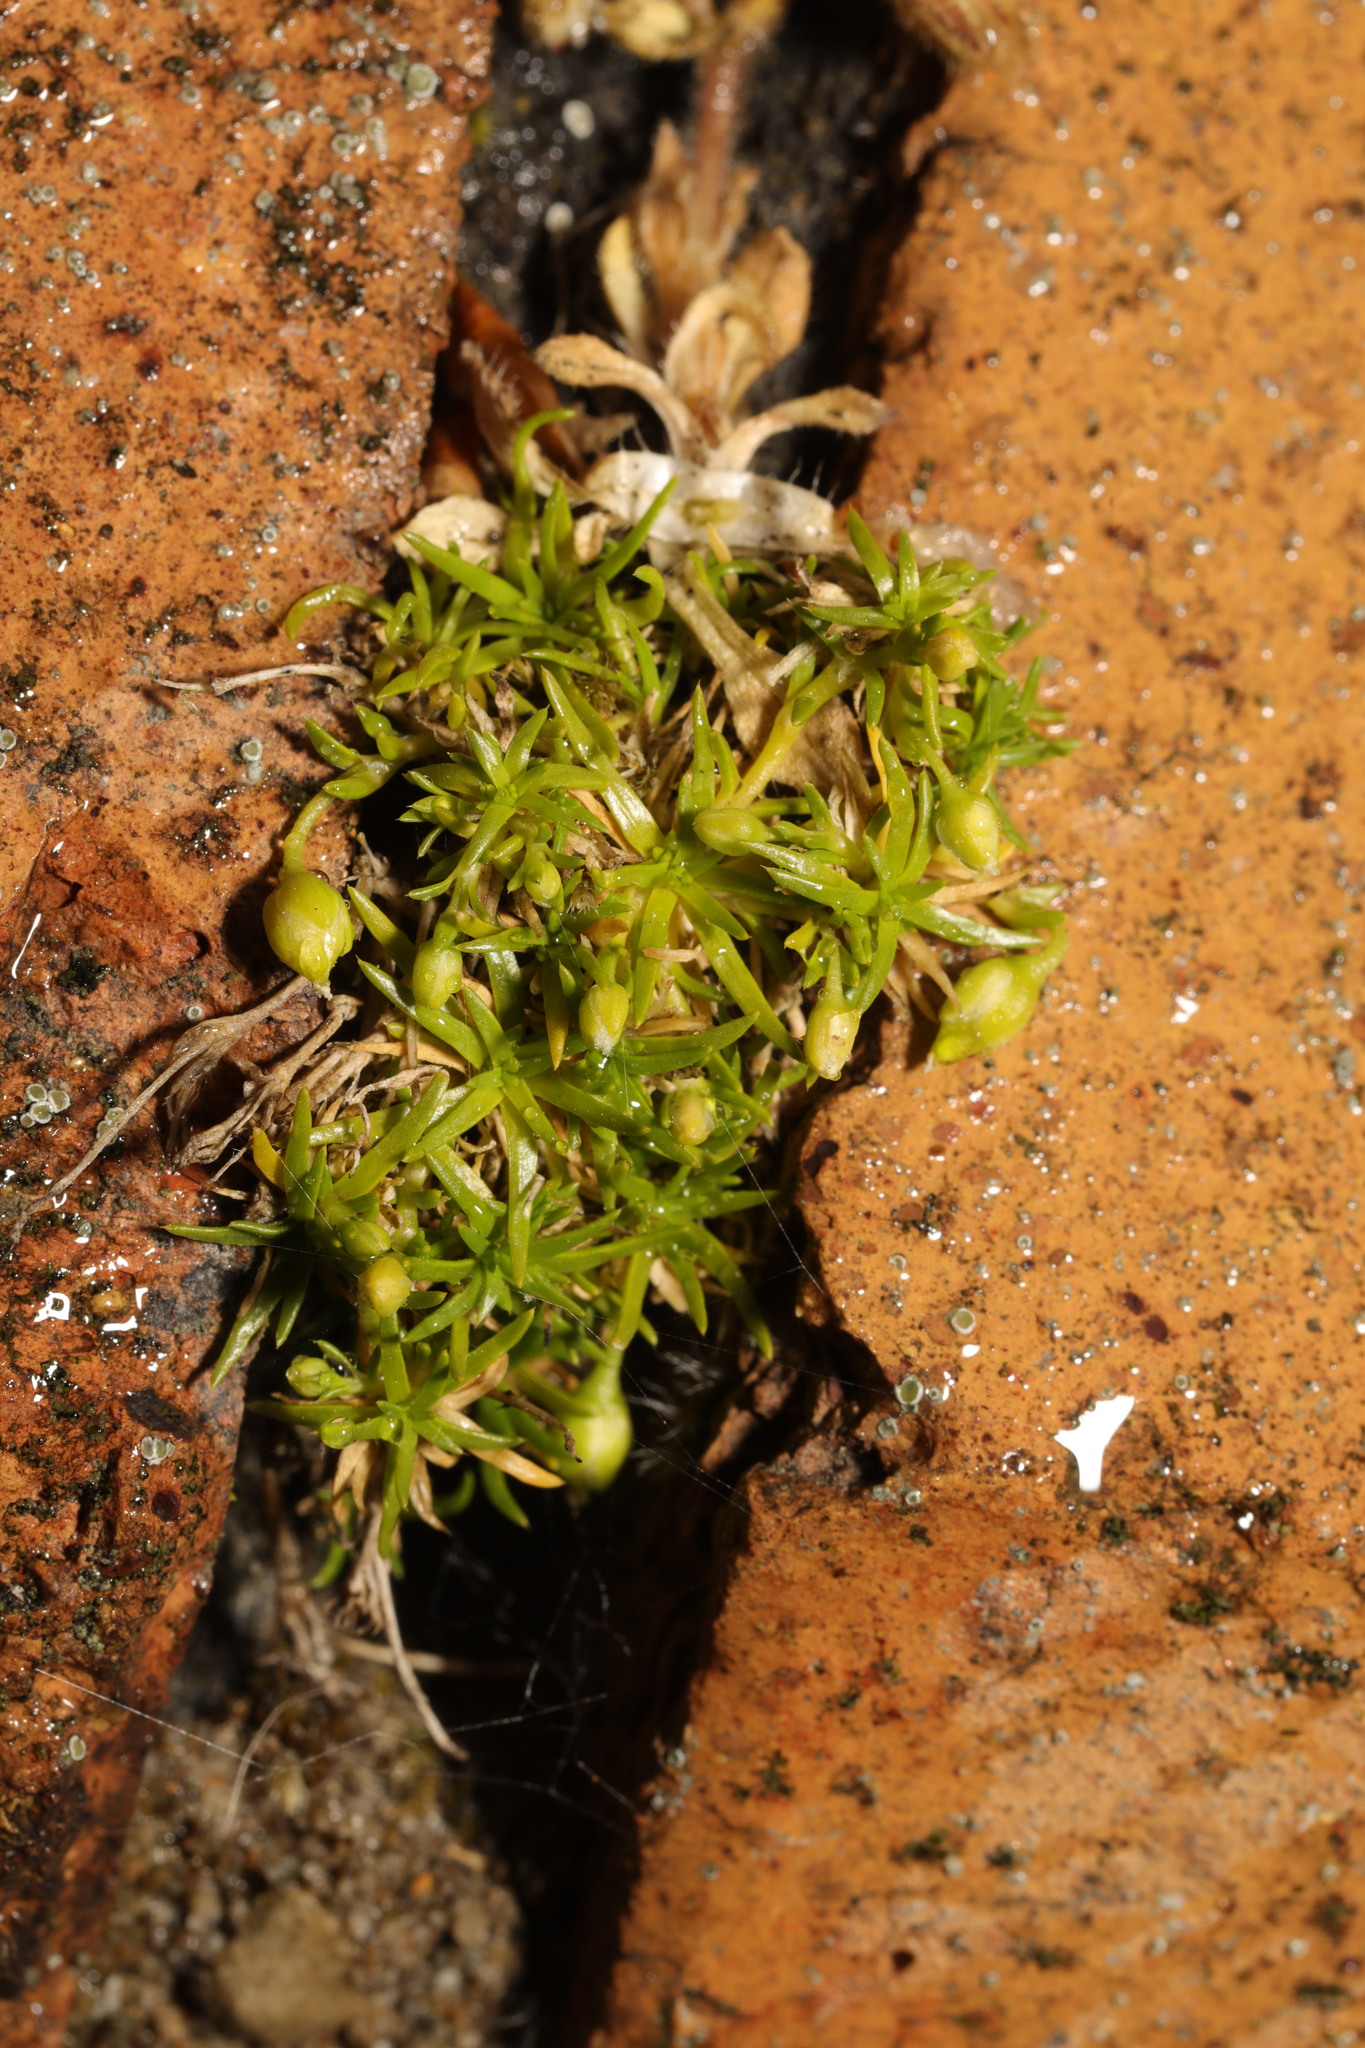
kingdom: Plantae
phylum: Tracheophyta
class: Magnoliopsida
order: Caryophyllales
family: Caryophyllaceae
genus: Sagina
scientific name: Sagina procumbens
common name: Procumbent pearlwort
